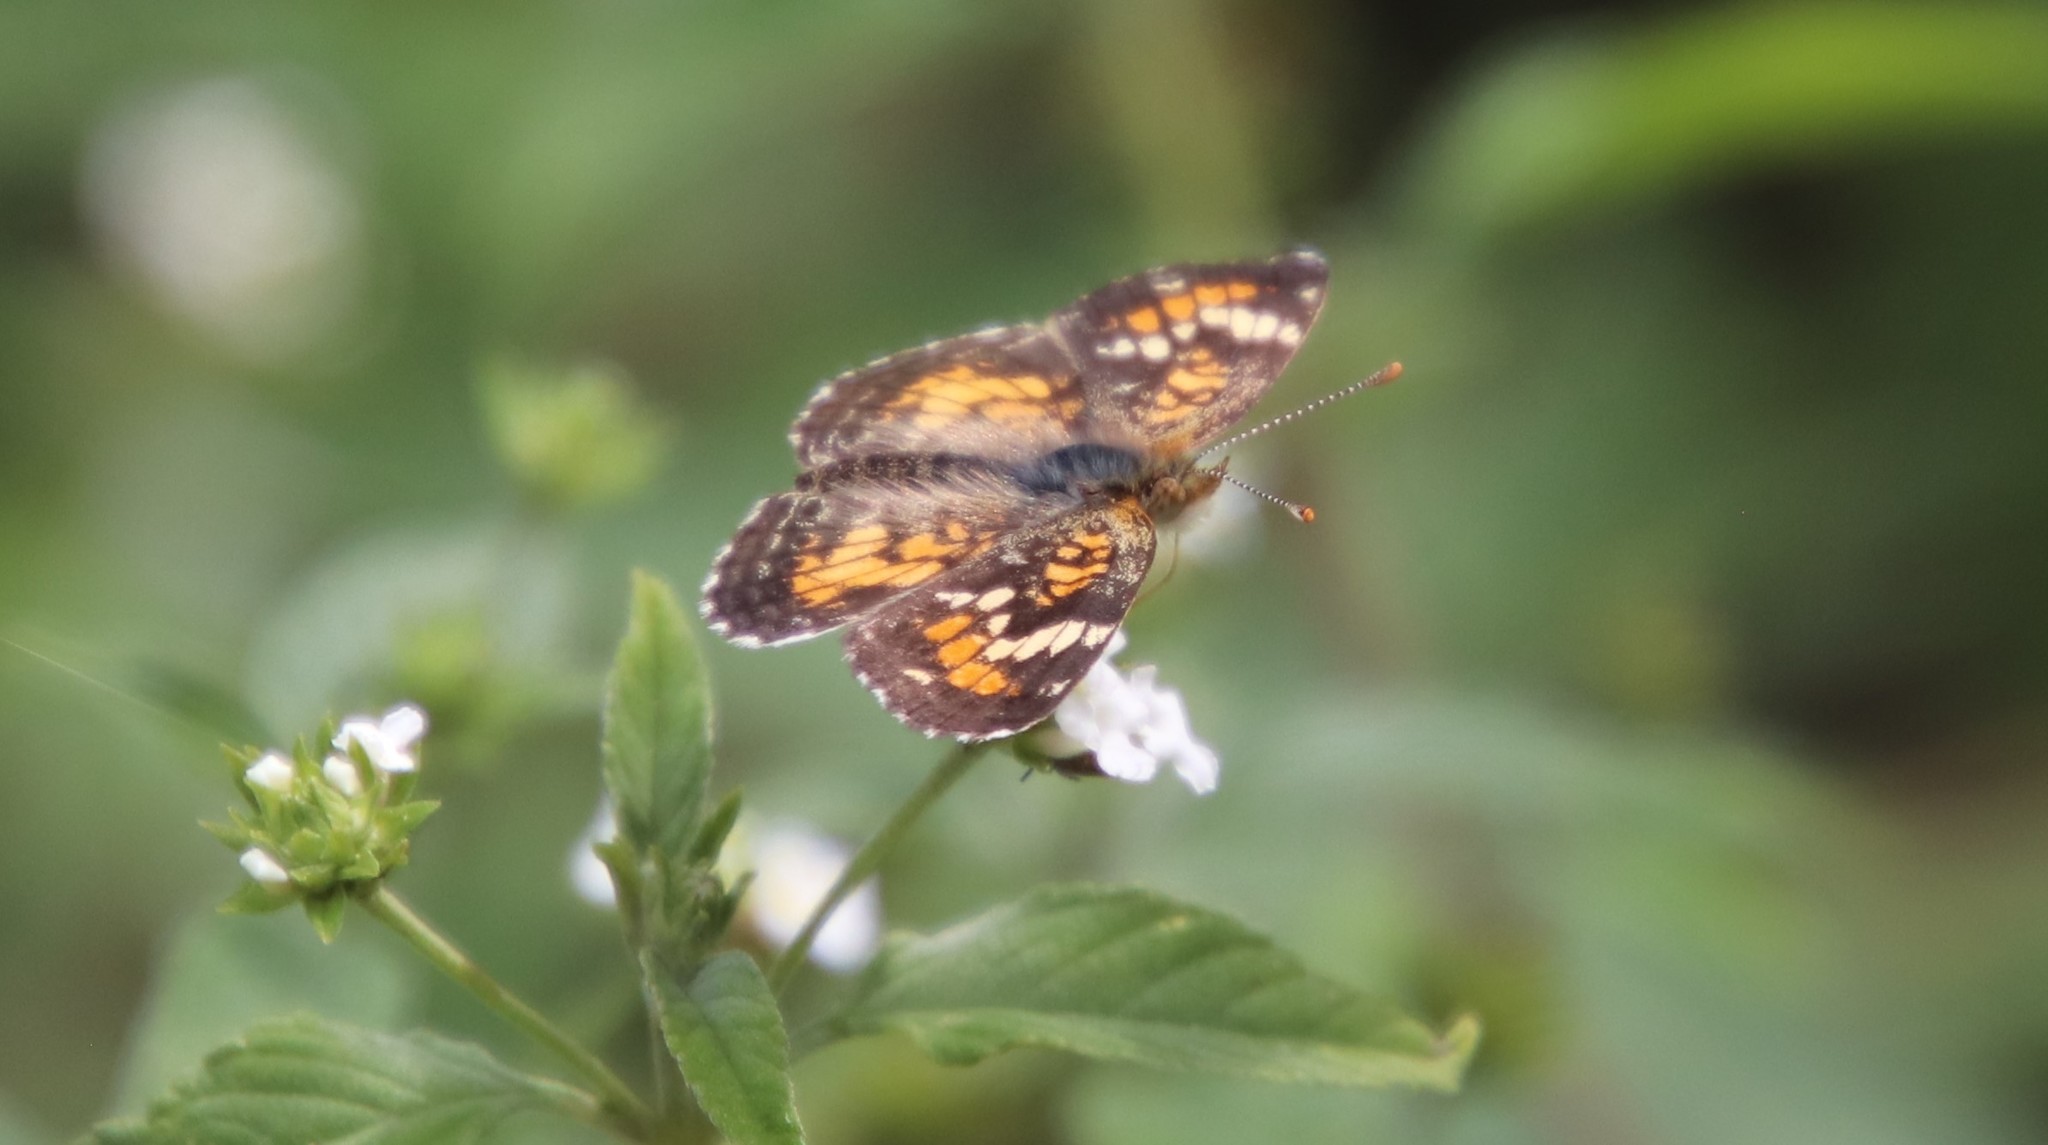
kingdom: Animalia
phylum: Arthropoda
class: Insecta
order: Lepidoptera
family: Nymphalidae
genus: Phyciodes
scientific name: Phyciodes phaon
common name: Phaon crescent
